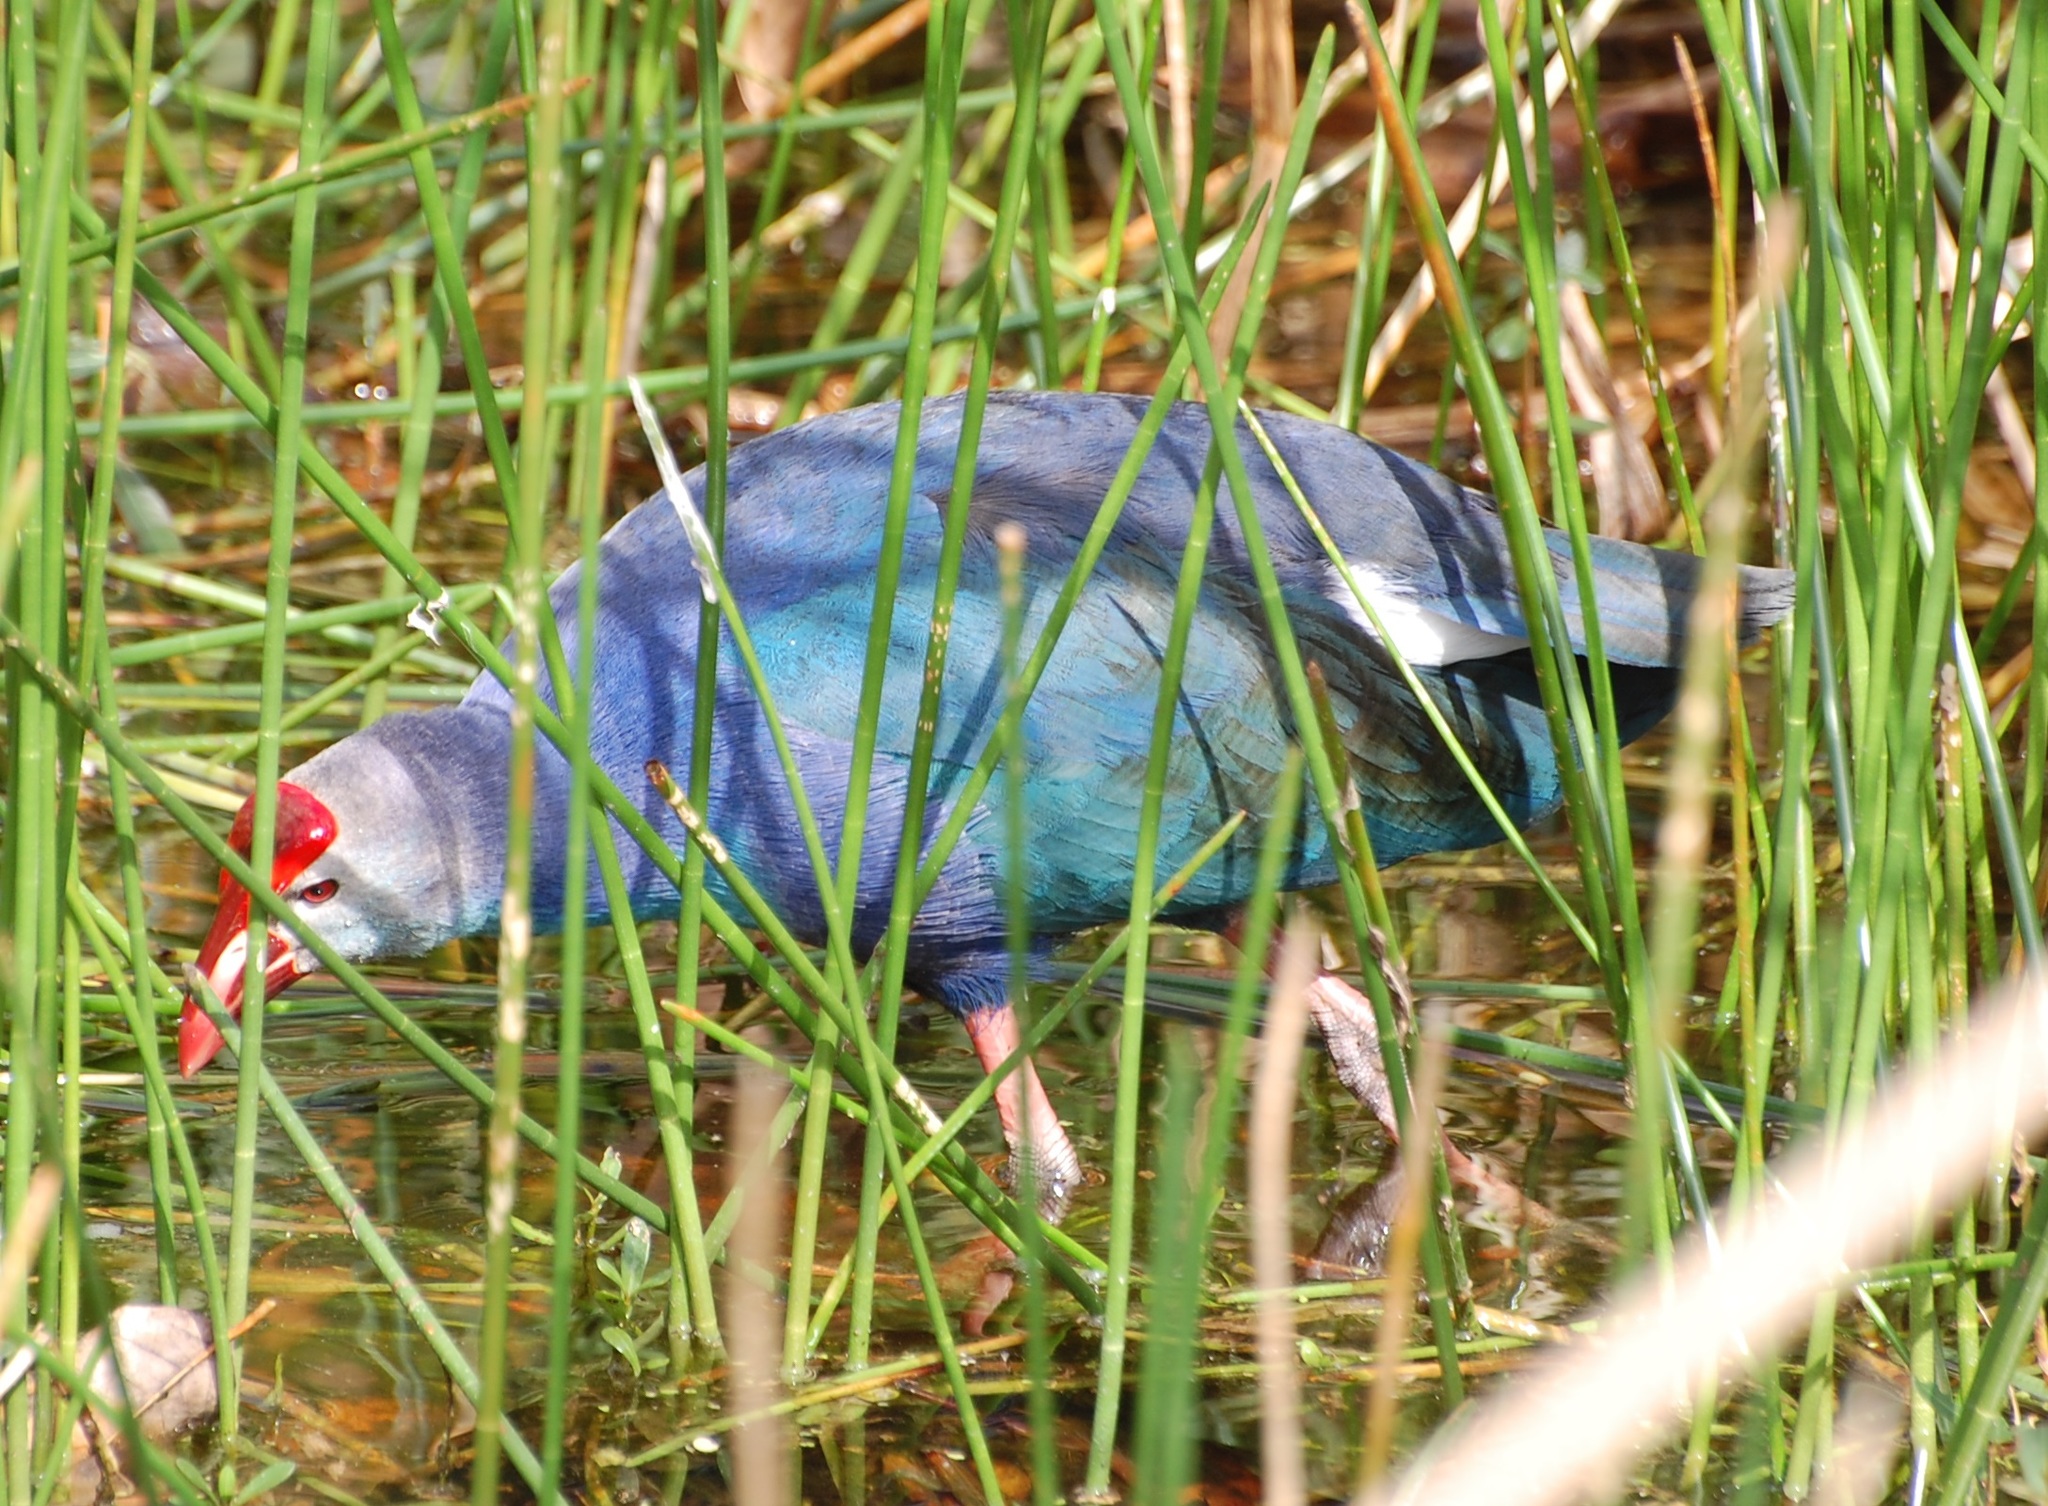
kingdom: Animalia
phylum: Chordata
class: Aves
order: Gruiformes
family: Rallidae
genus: Porphyrio
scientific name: Porphyrio porphyrio
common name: Purple swamphen
